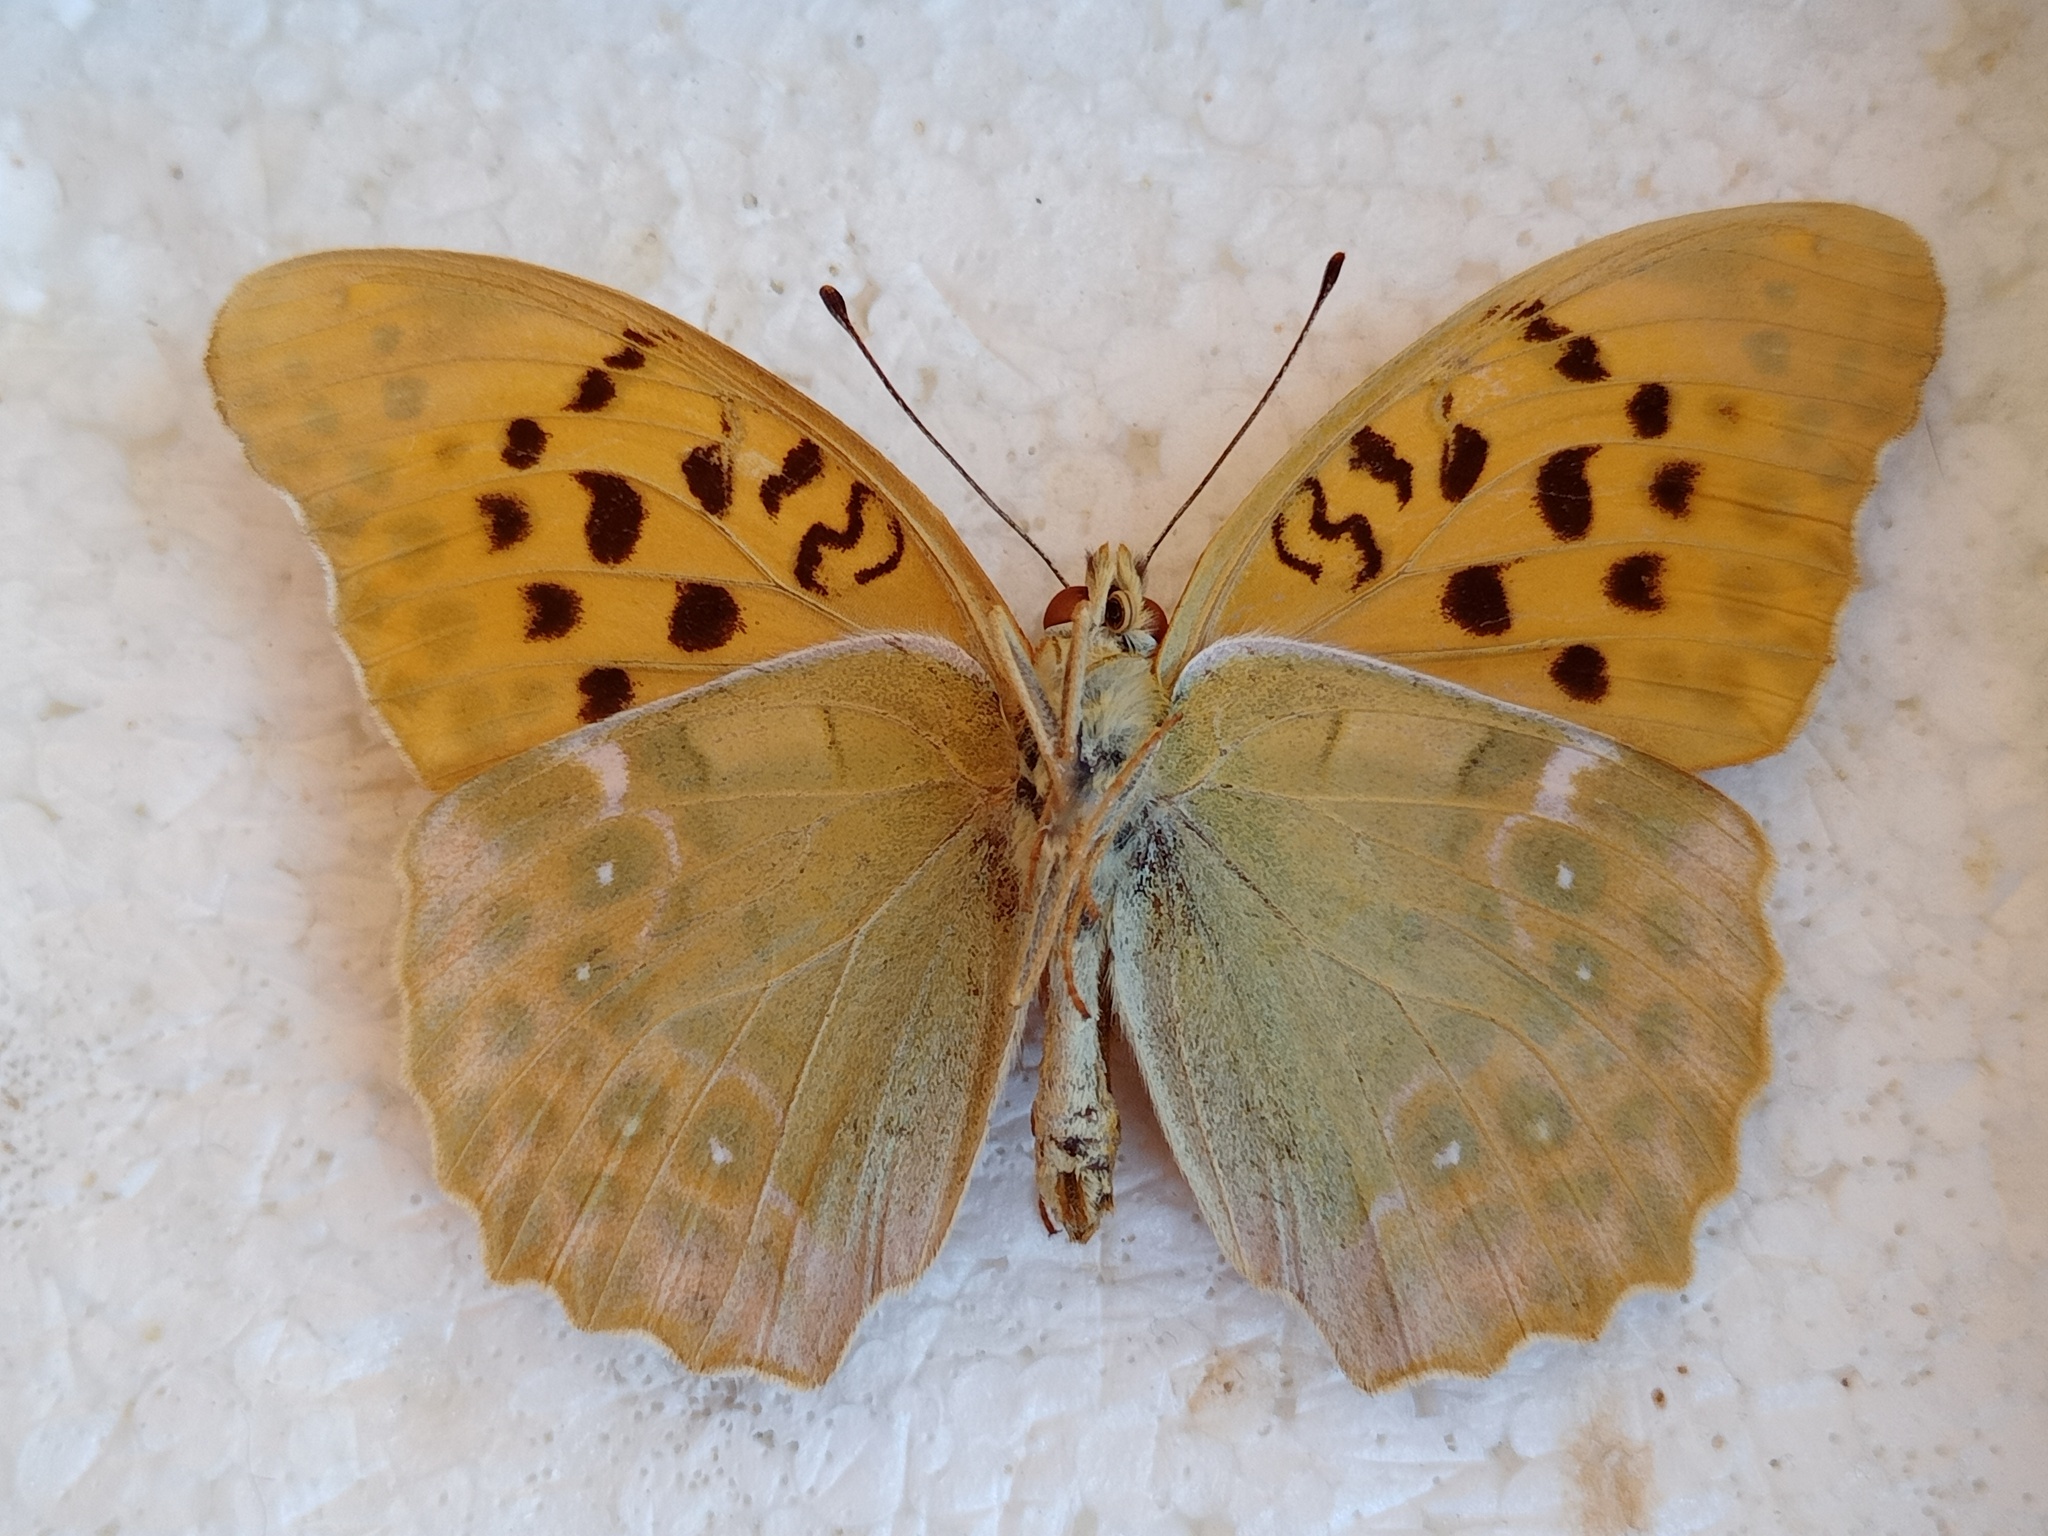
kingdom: Animalia
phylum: Arthropoda
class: Insecta
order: Lepidoptera
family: Nymphalidae
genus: Argynnis
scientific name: Argynnis anadyomene
